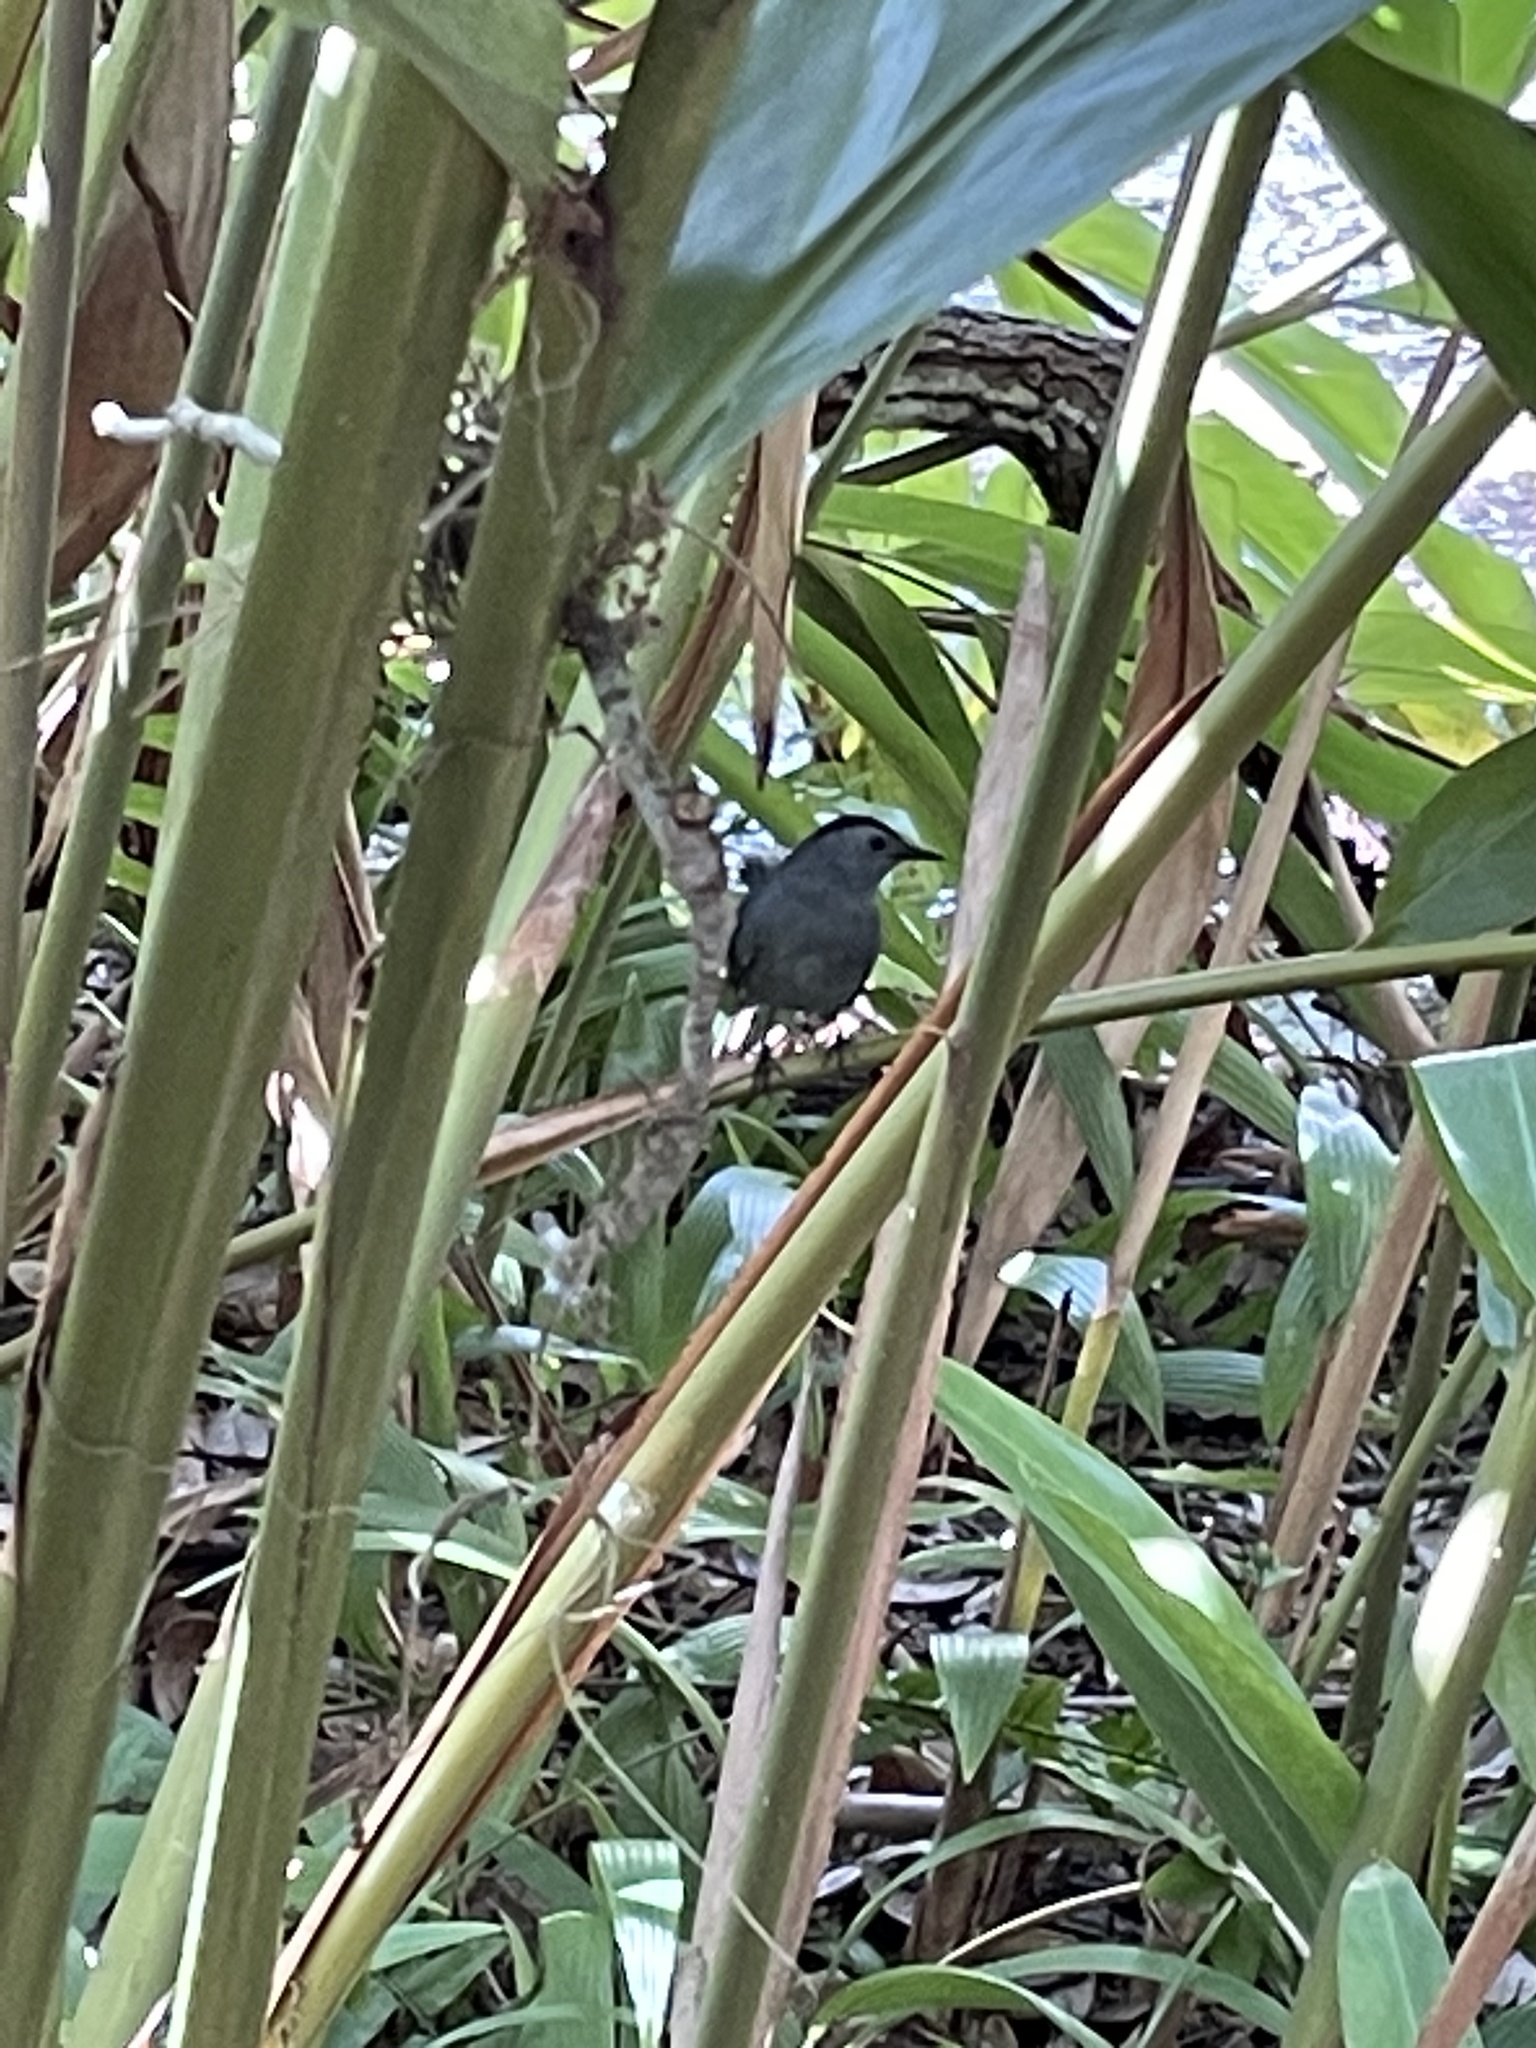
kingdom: Animalia
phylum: Chordata
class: Aves
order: Passeriformes
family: Mimidae
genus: Dumetella
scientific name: Dumetella carolinensis
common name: Gray catbird
